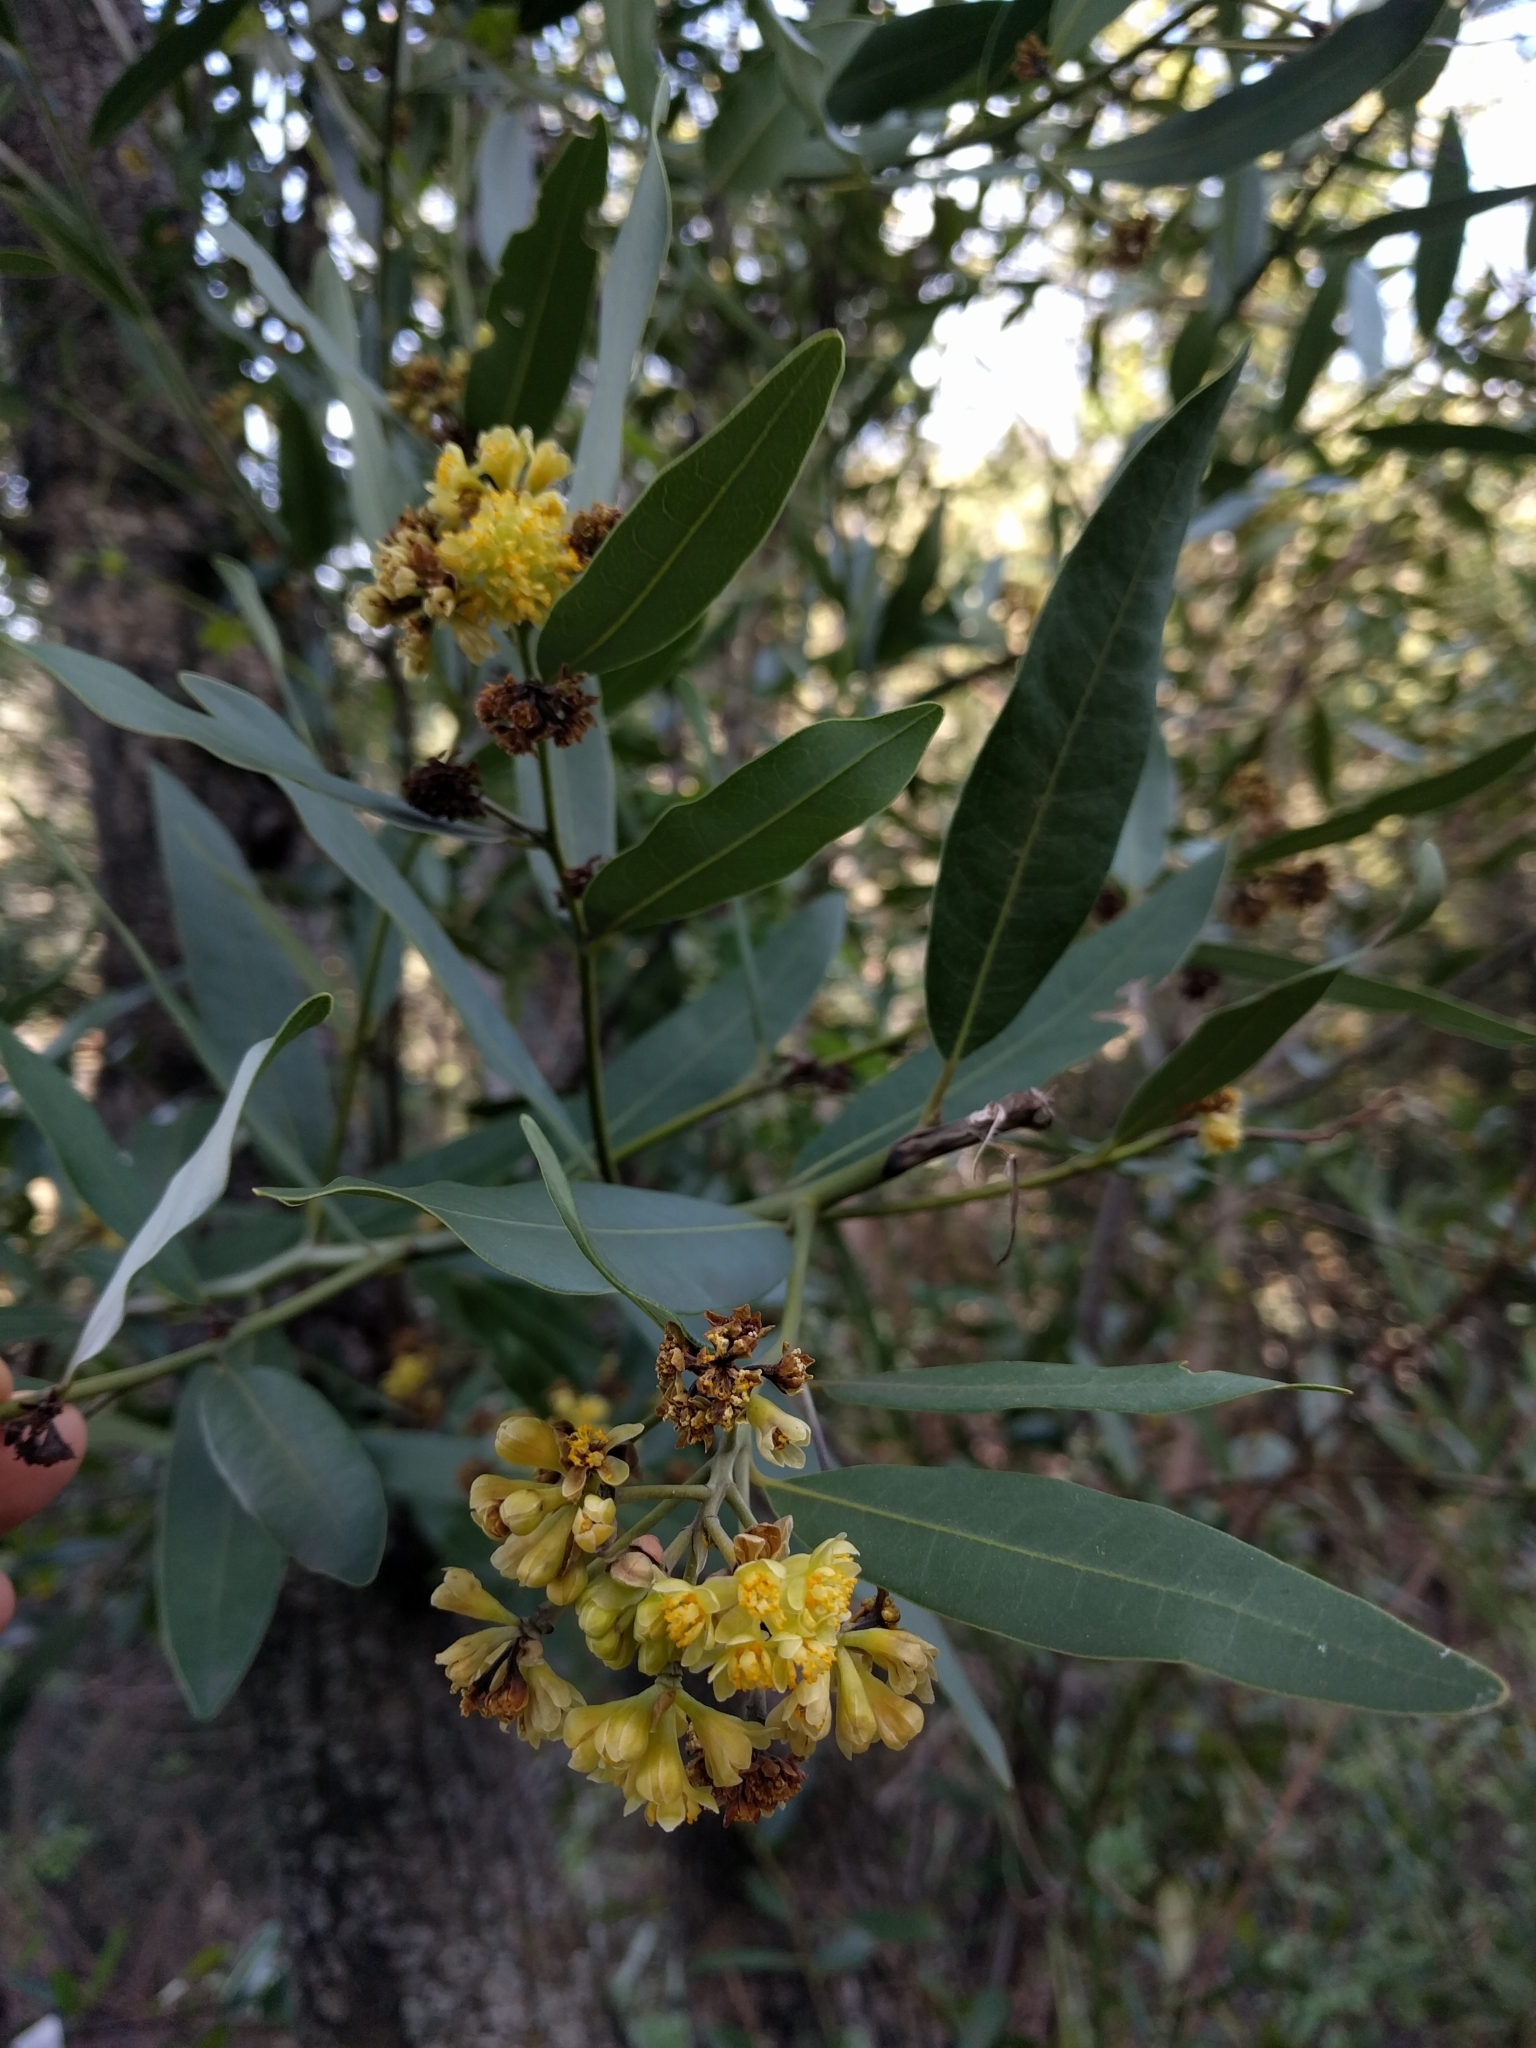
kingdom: Plantae
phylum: Tracheophyta
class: Magnoliopsida
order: Laurales
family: Lauraceae
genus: Umbellularia
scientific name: Umbellularia californica
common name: California bay
